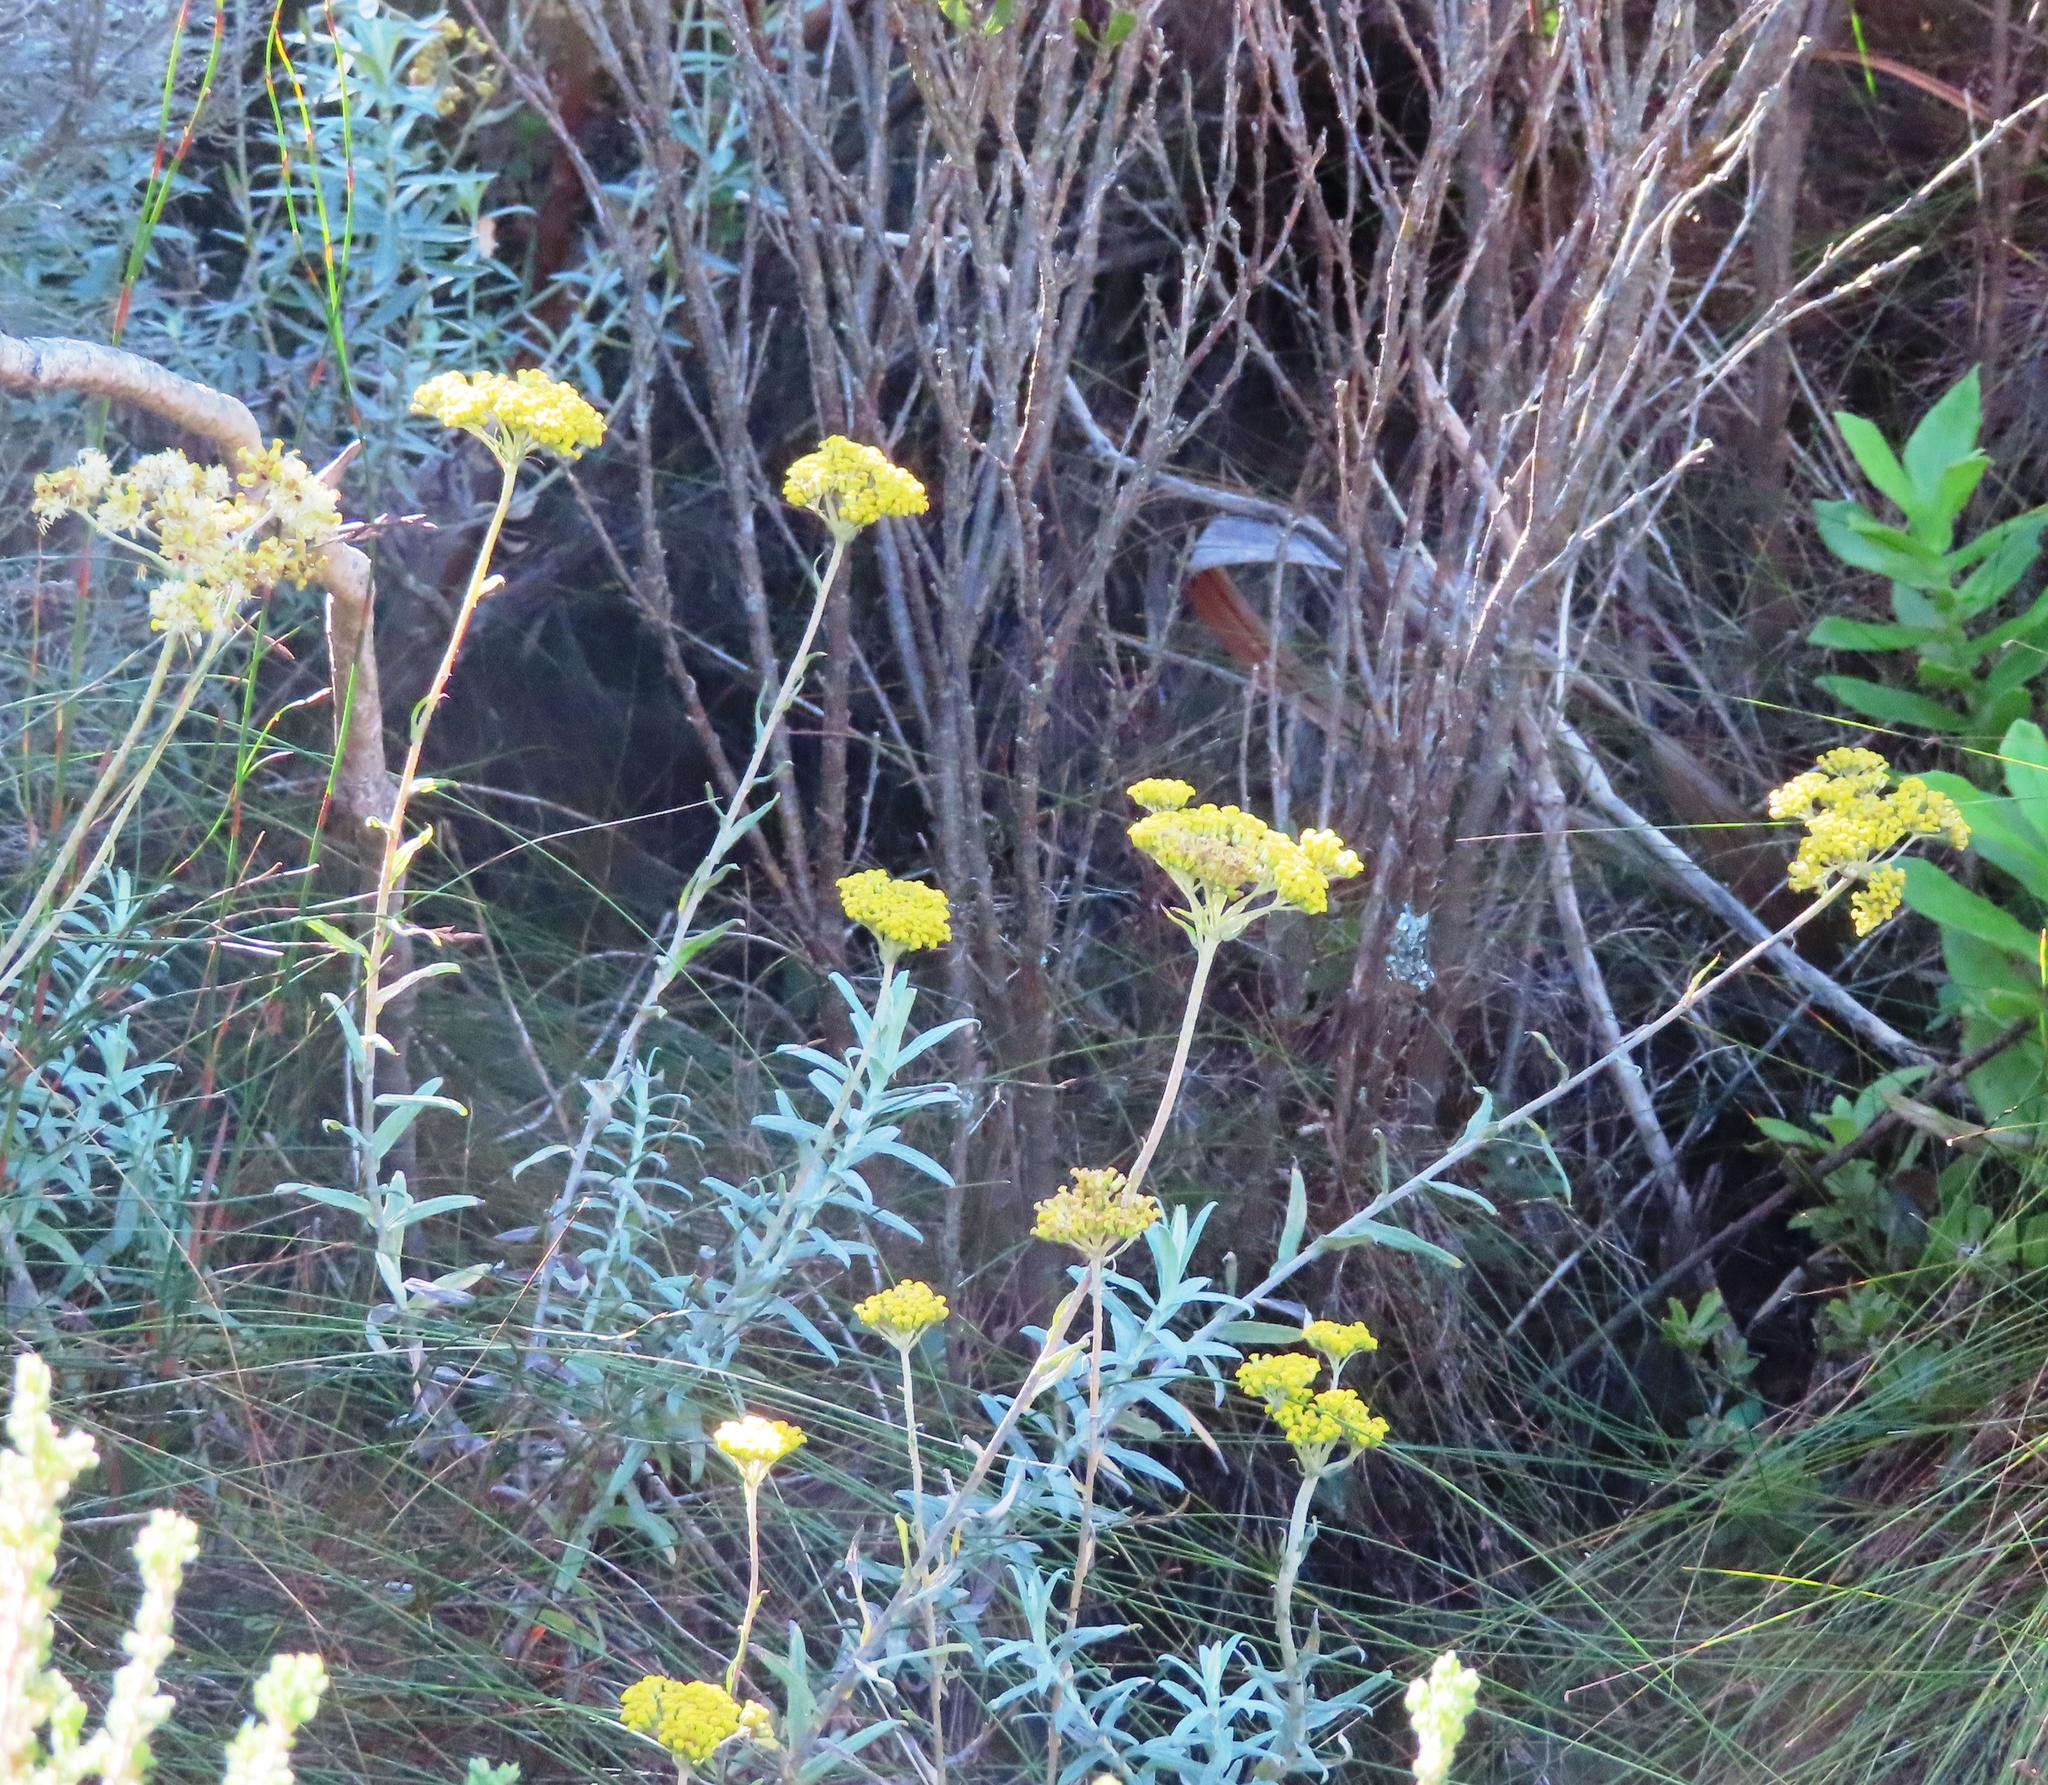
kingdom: Plantae
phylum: Tracheophyta
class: Magnoliopsida
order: Asterales
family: Asteraceae
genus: Helichrysum
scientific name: Helichrysum cymosum
